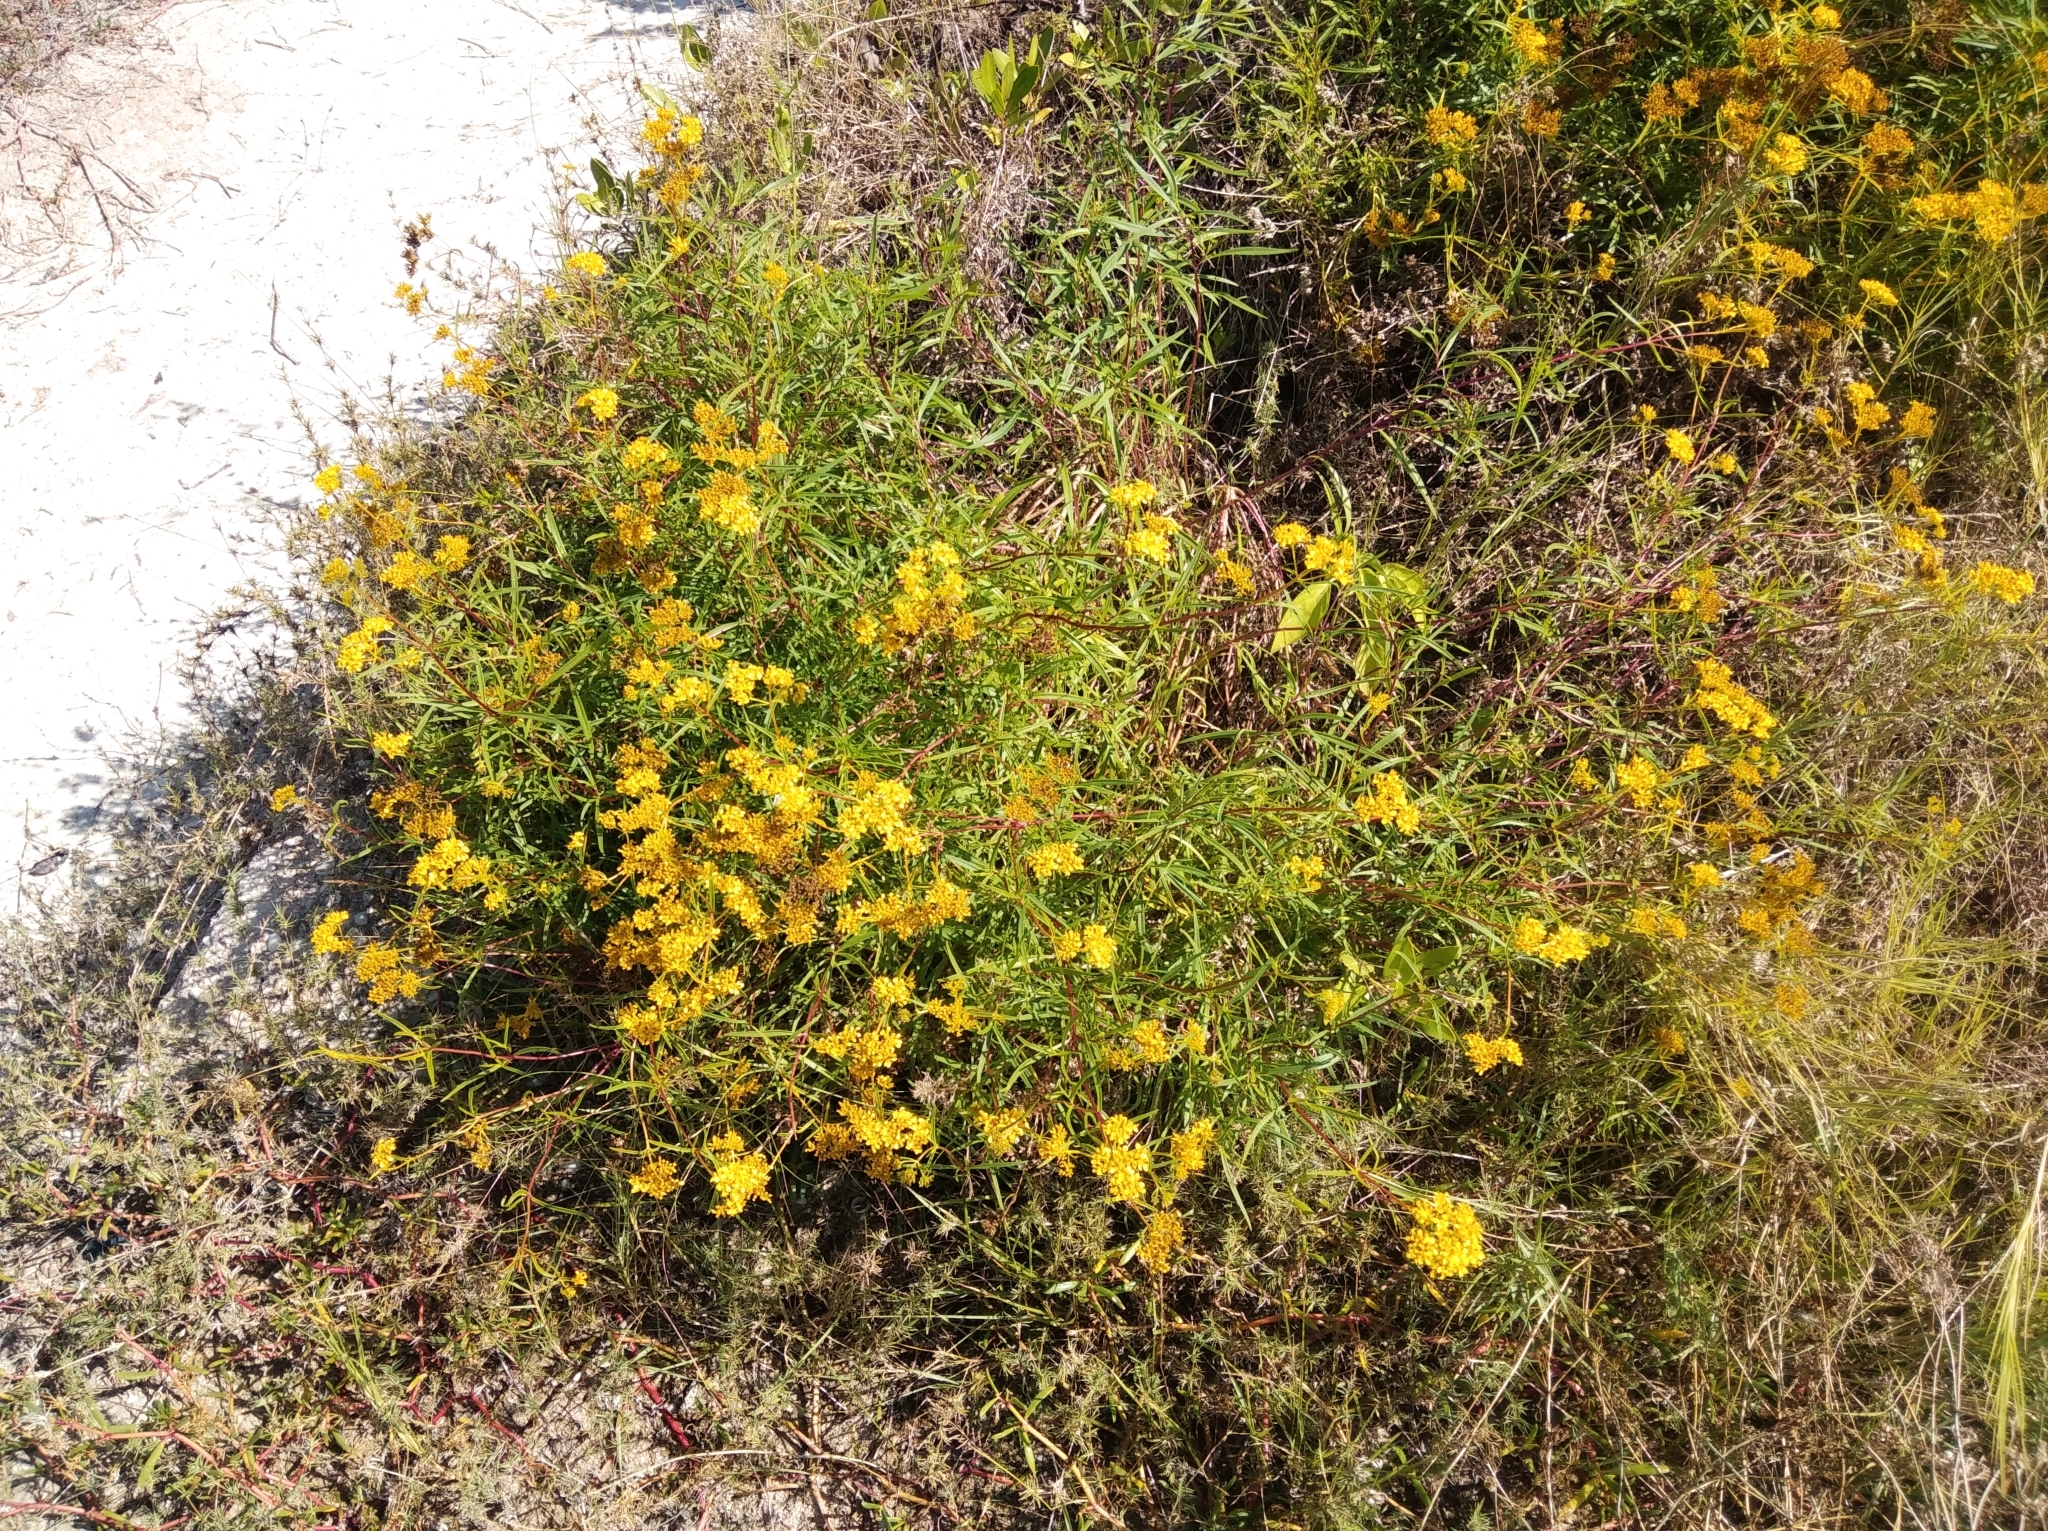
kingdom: Plantae
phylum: Tracheophyta
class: Magnoliopsida
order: Asterales
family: Asteraceae
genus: Flaveria
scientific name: Flaveria linearis
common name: Yellowtop
